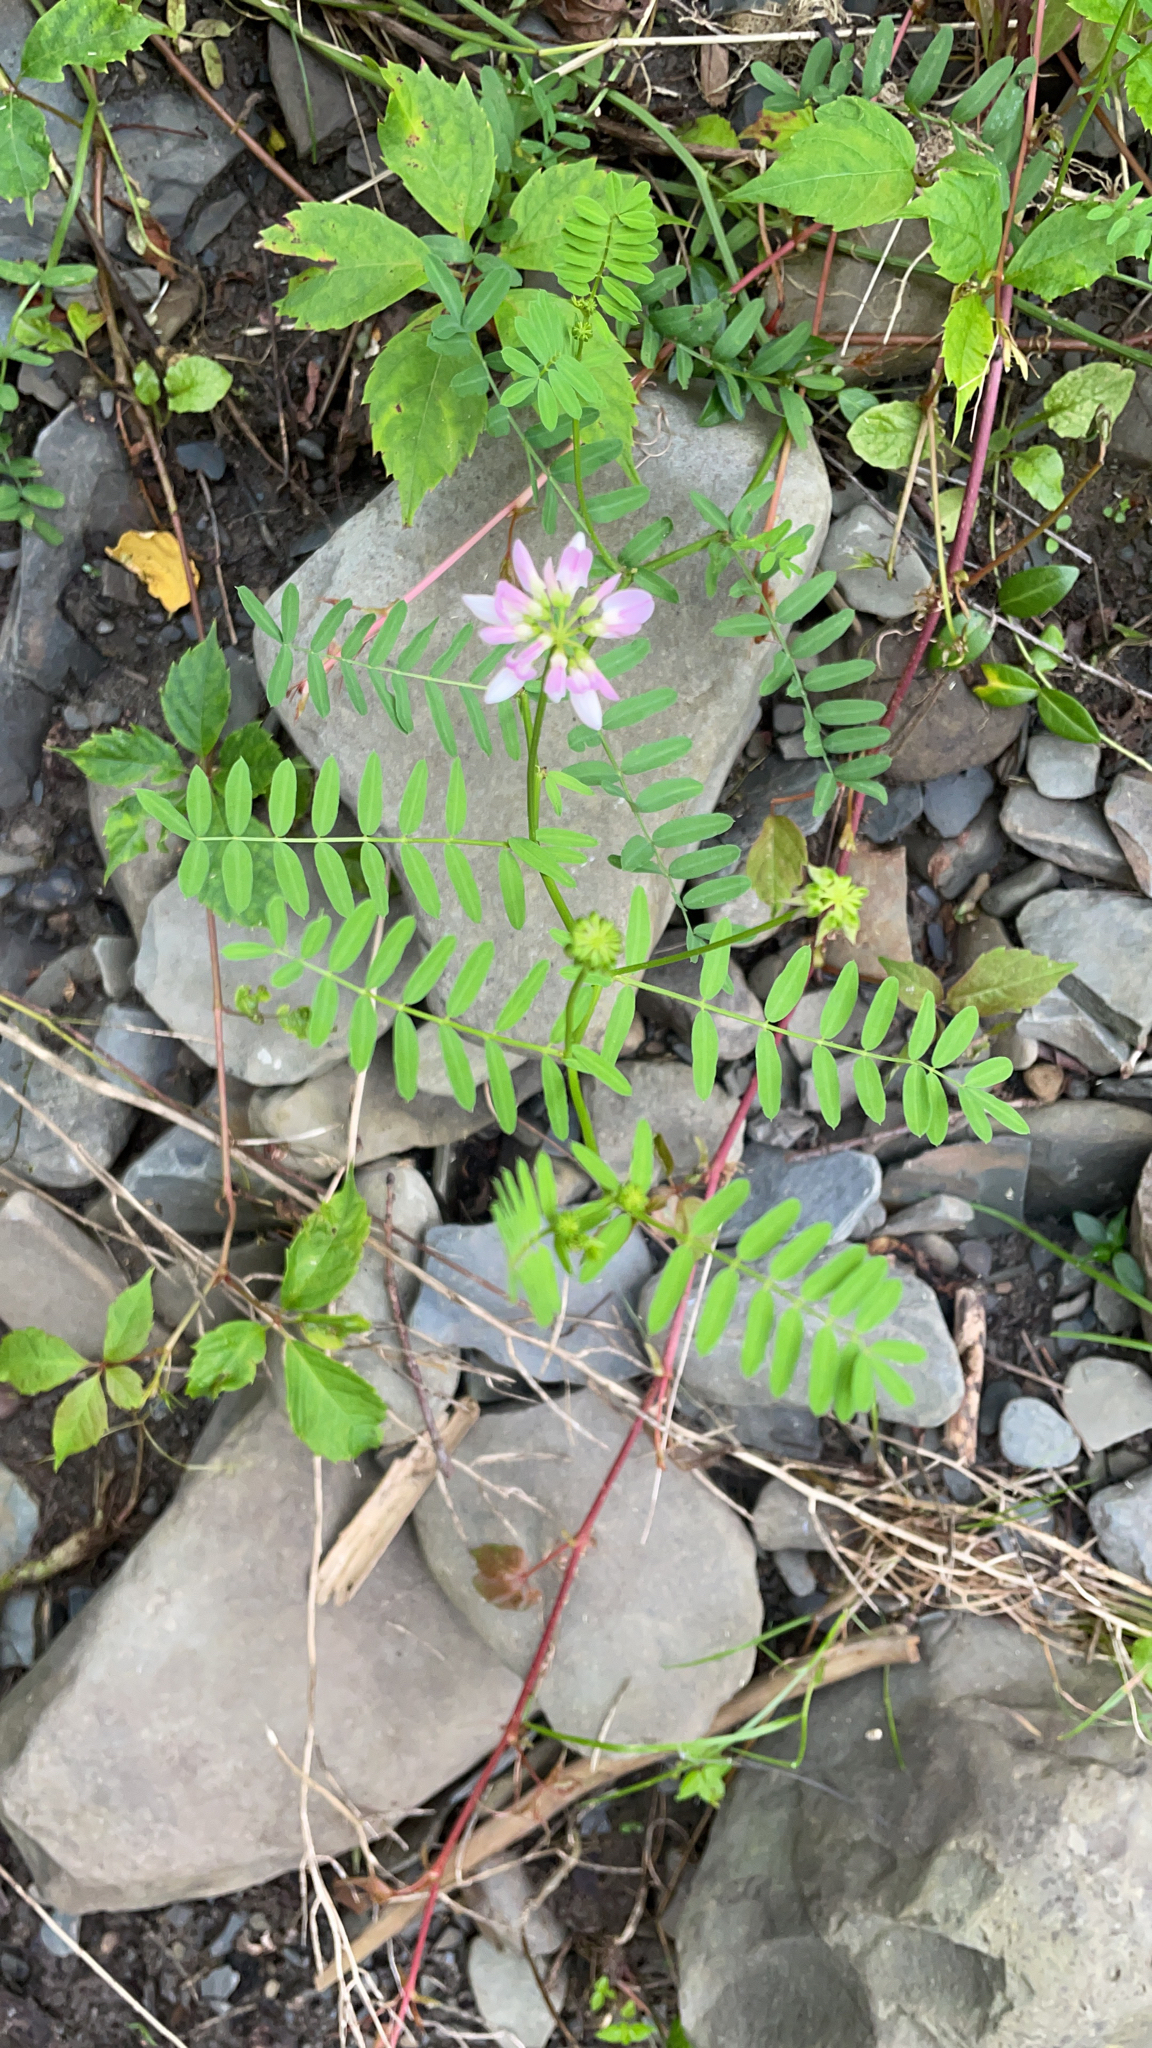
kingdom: Plantae
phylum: Tracheophyta
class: Magnoliopsida
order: Fabales
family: Fabaceae
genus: Coronilla
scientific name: Coronilla varia
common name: Crownvetch
